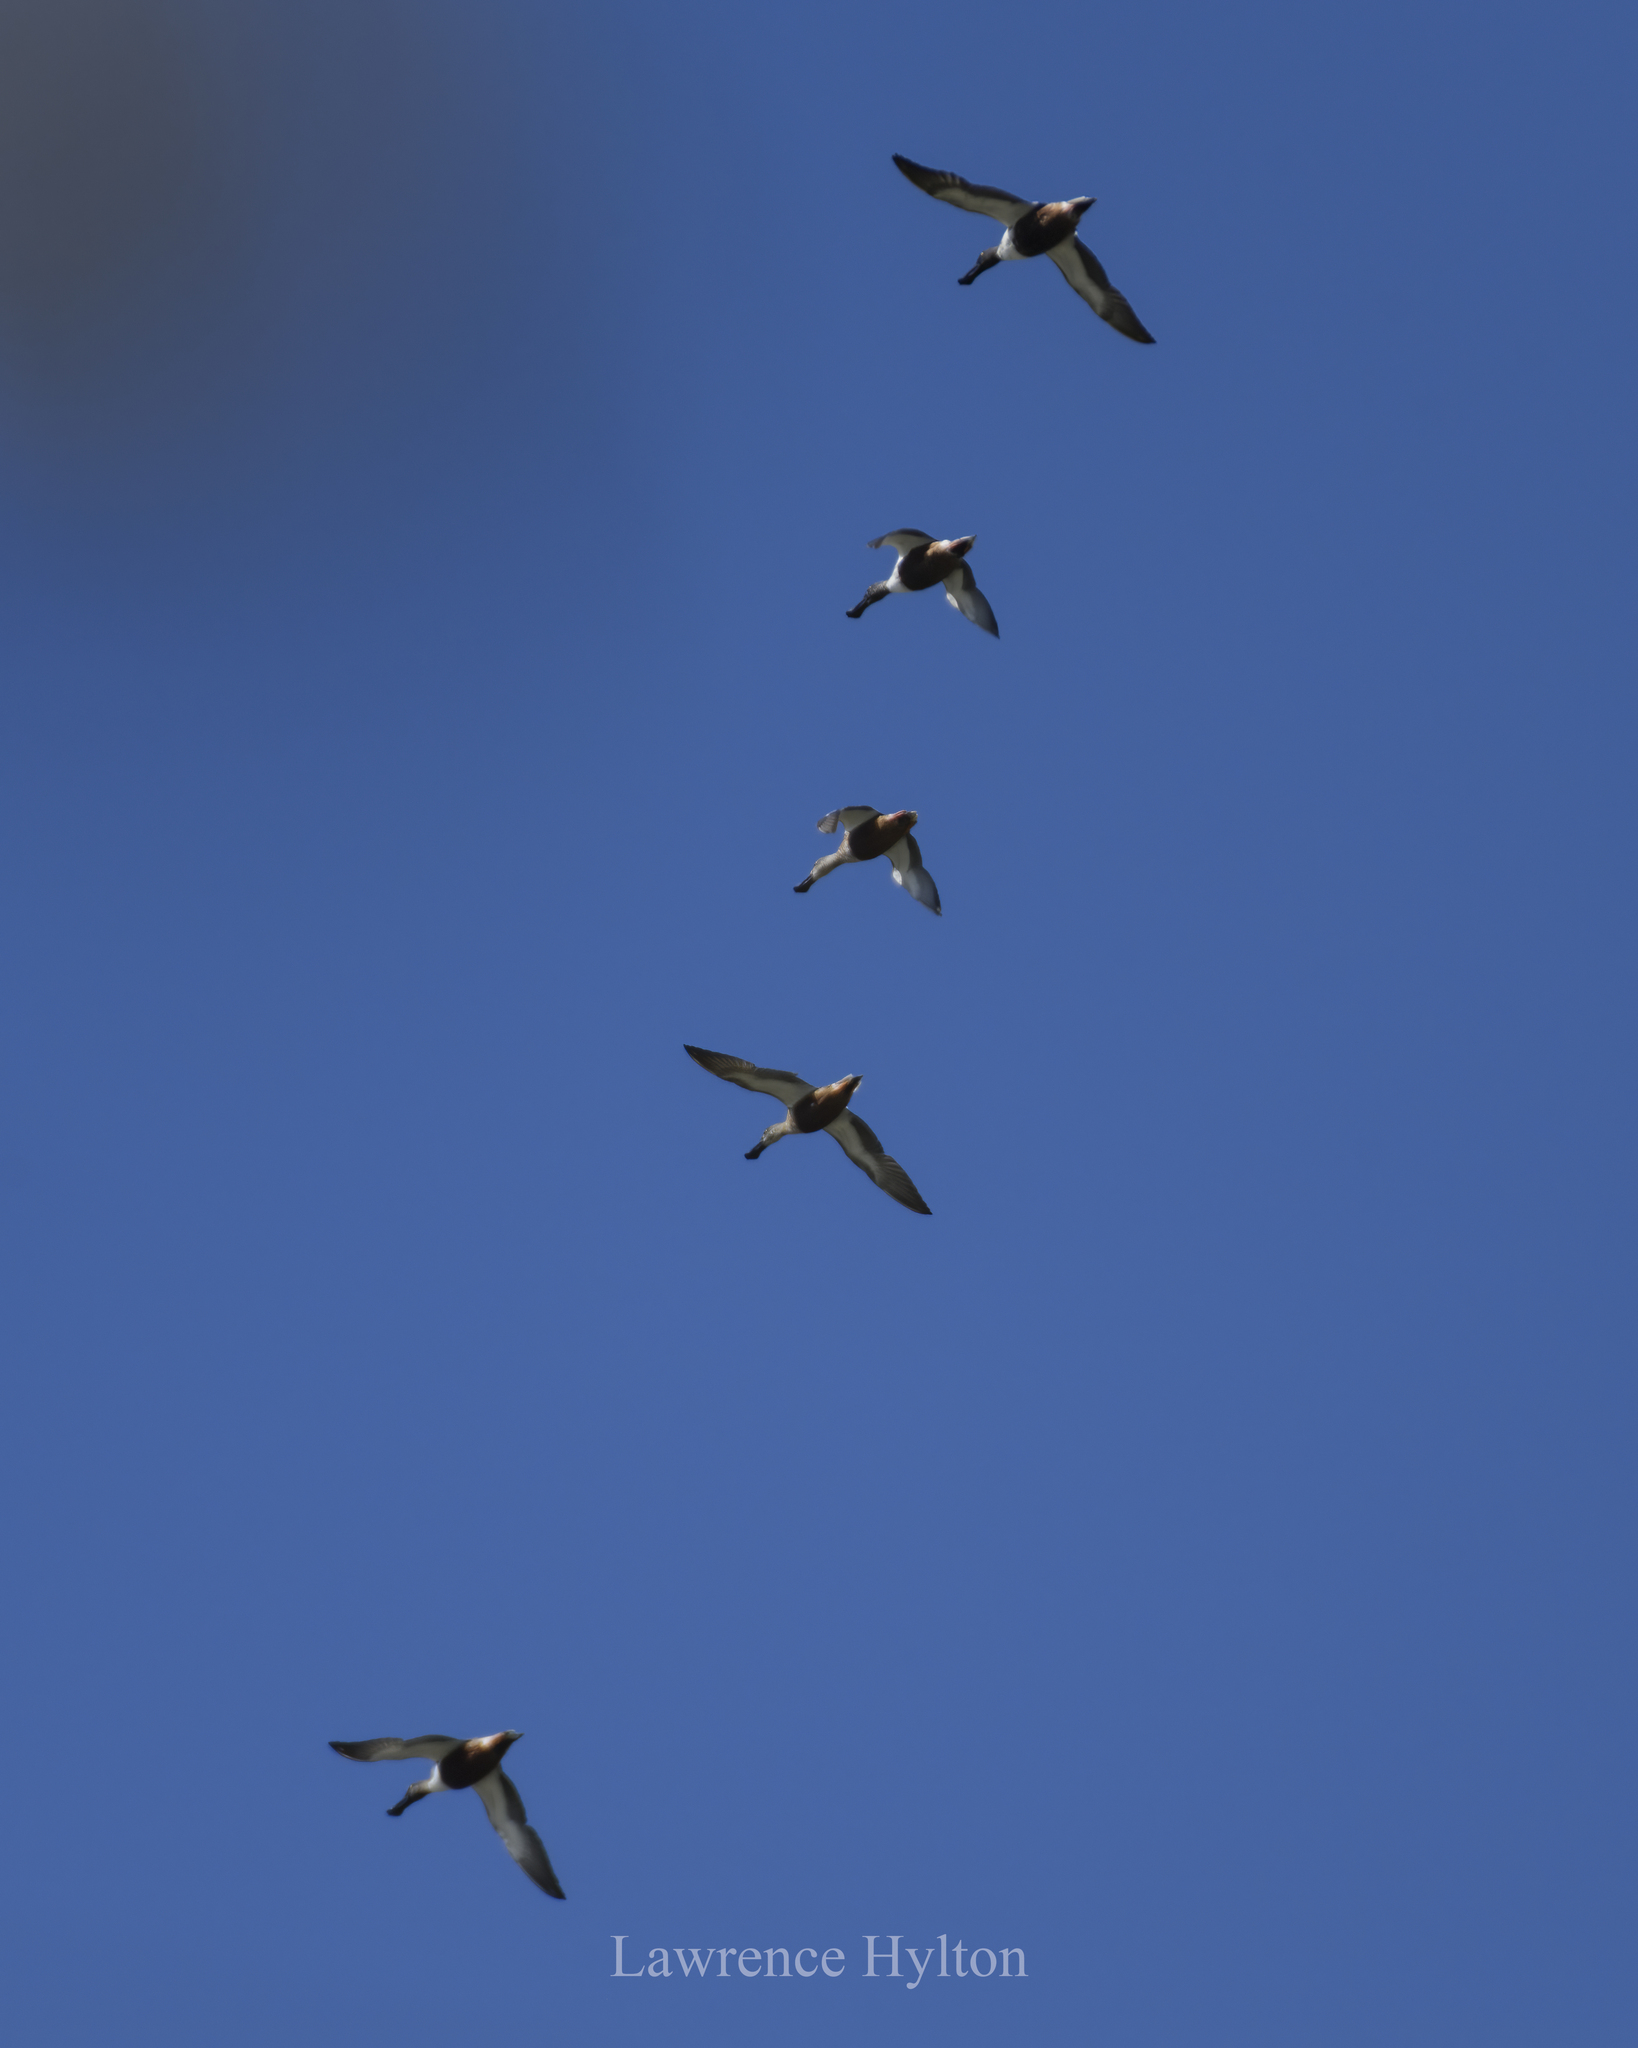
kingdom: Animalia
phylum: Chordata
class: Aves
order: Anseriformes
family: Anatidae
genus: Spatula
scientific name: Spatula clypeata
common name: Northern shoveler
